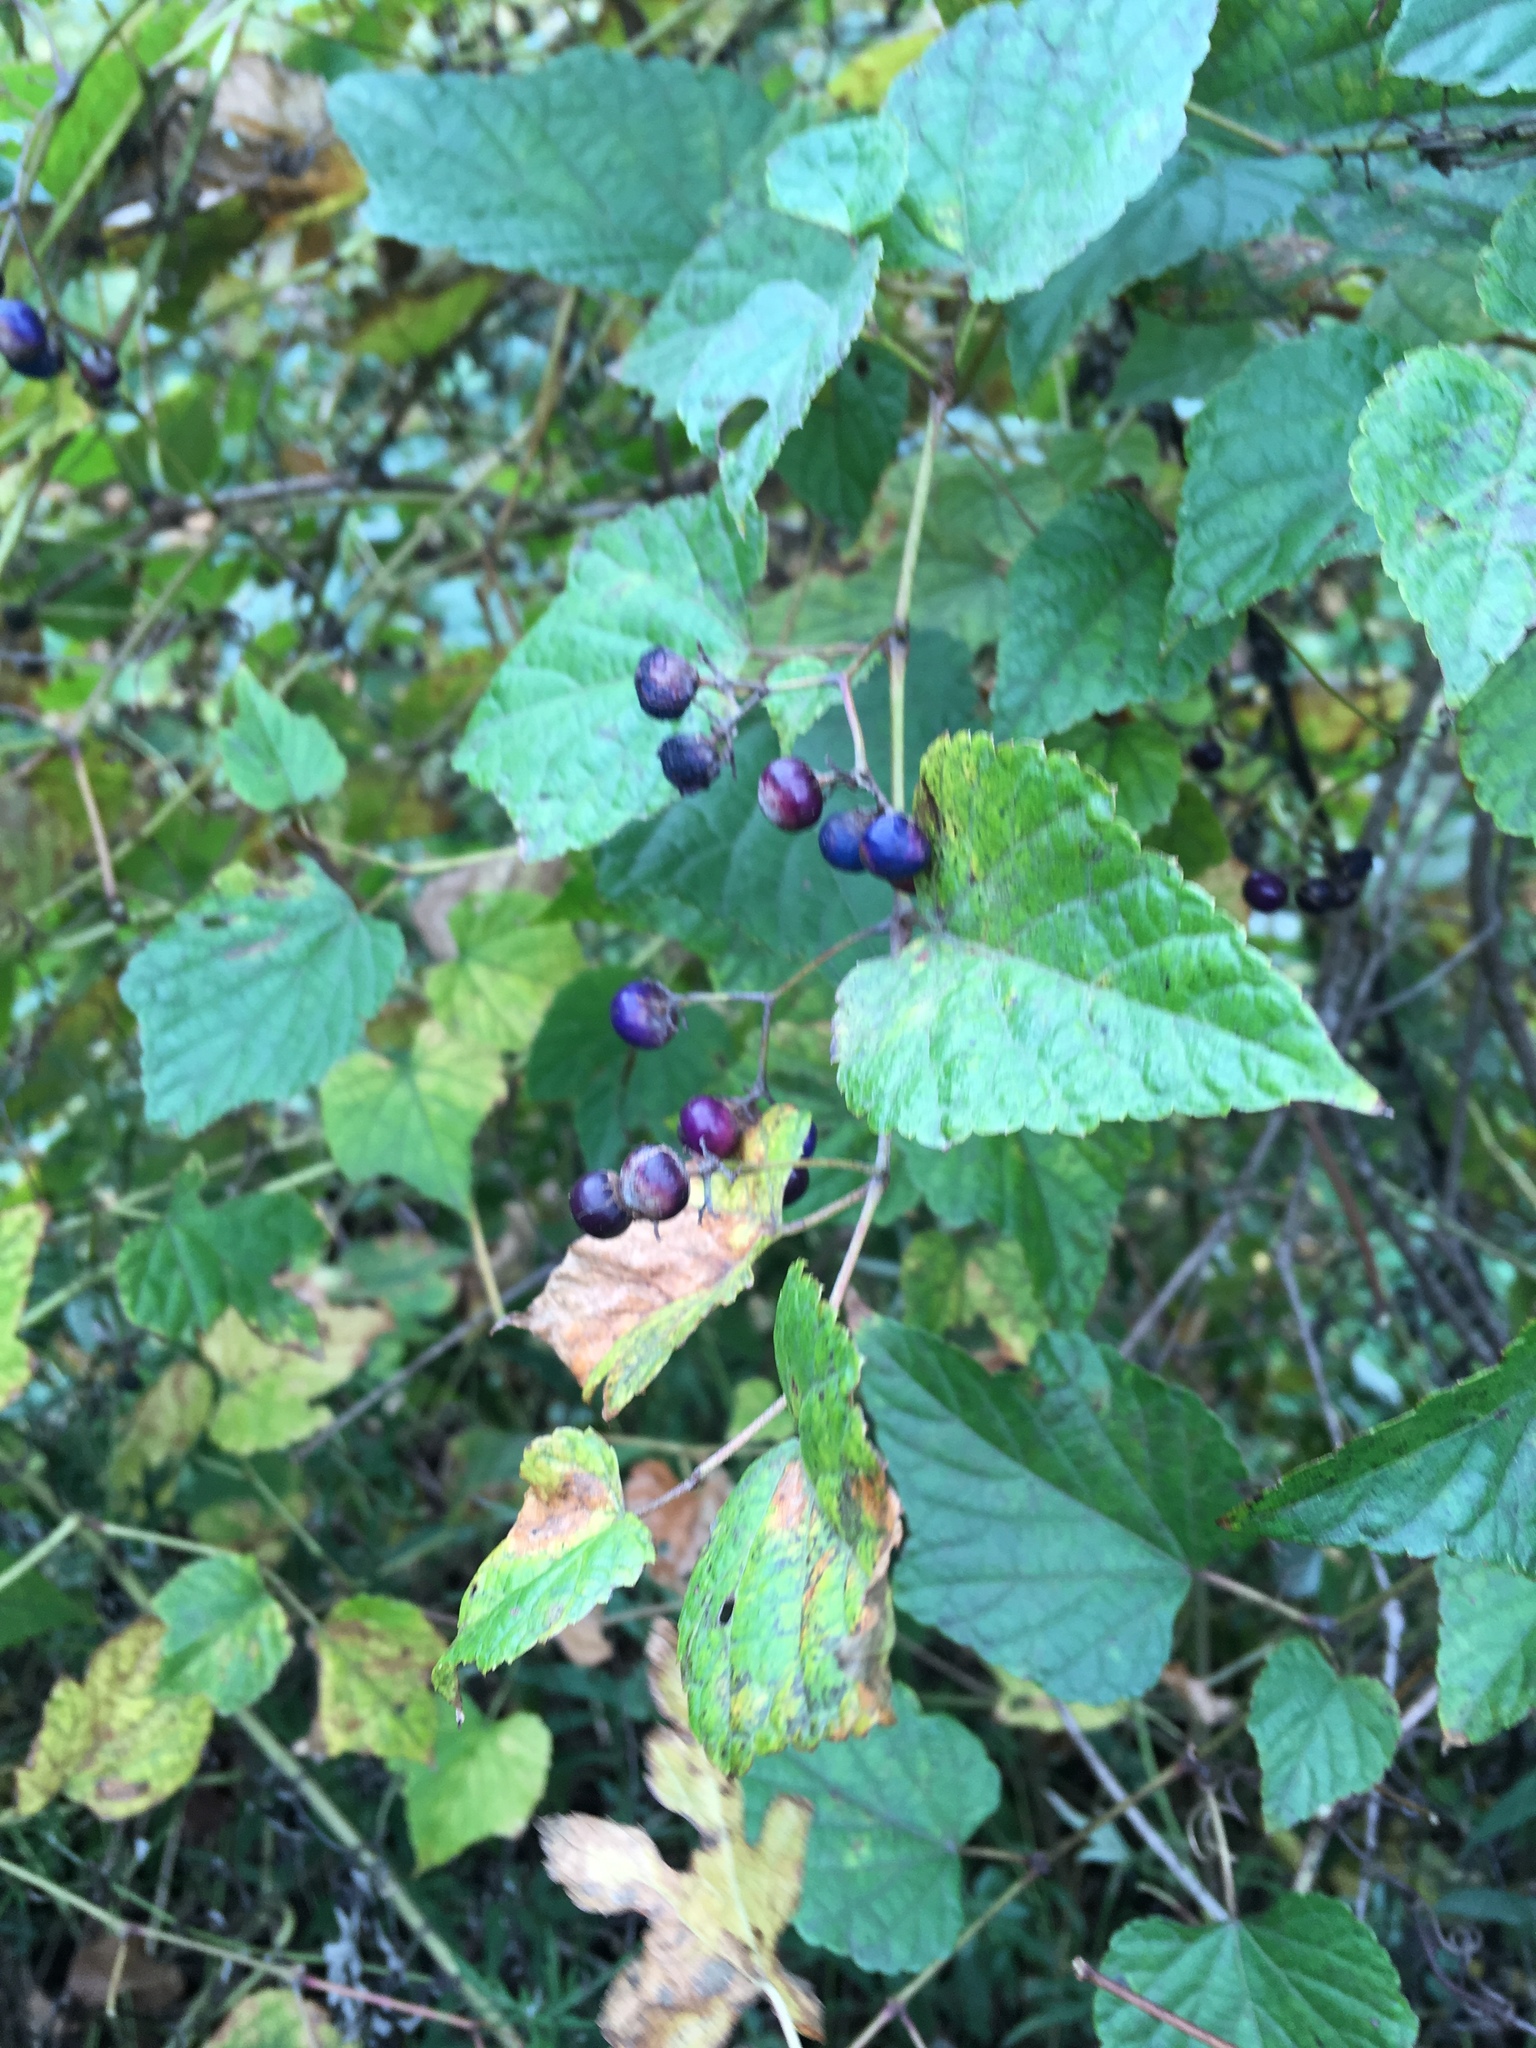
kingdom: Plantae
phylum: Tracheophyta
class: Magnoliopsida
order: Vitales
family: Vitaceae
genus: Ampelopsis
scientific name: Ampelopsis glandulosa
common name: Amur peppervine
